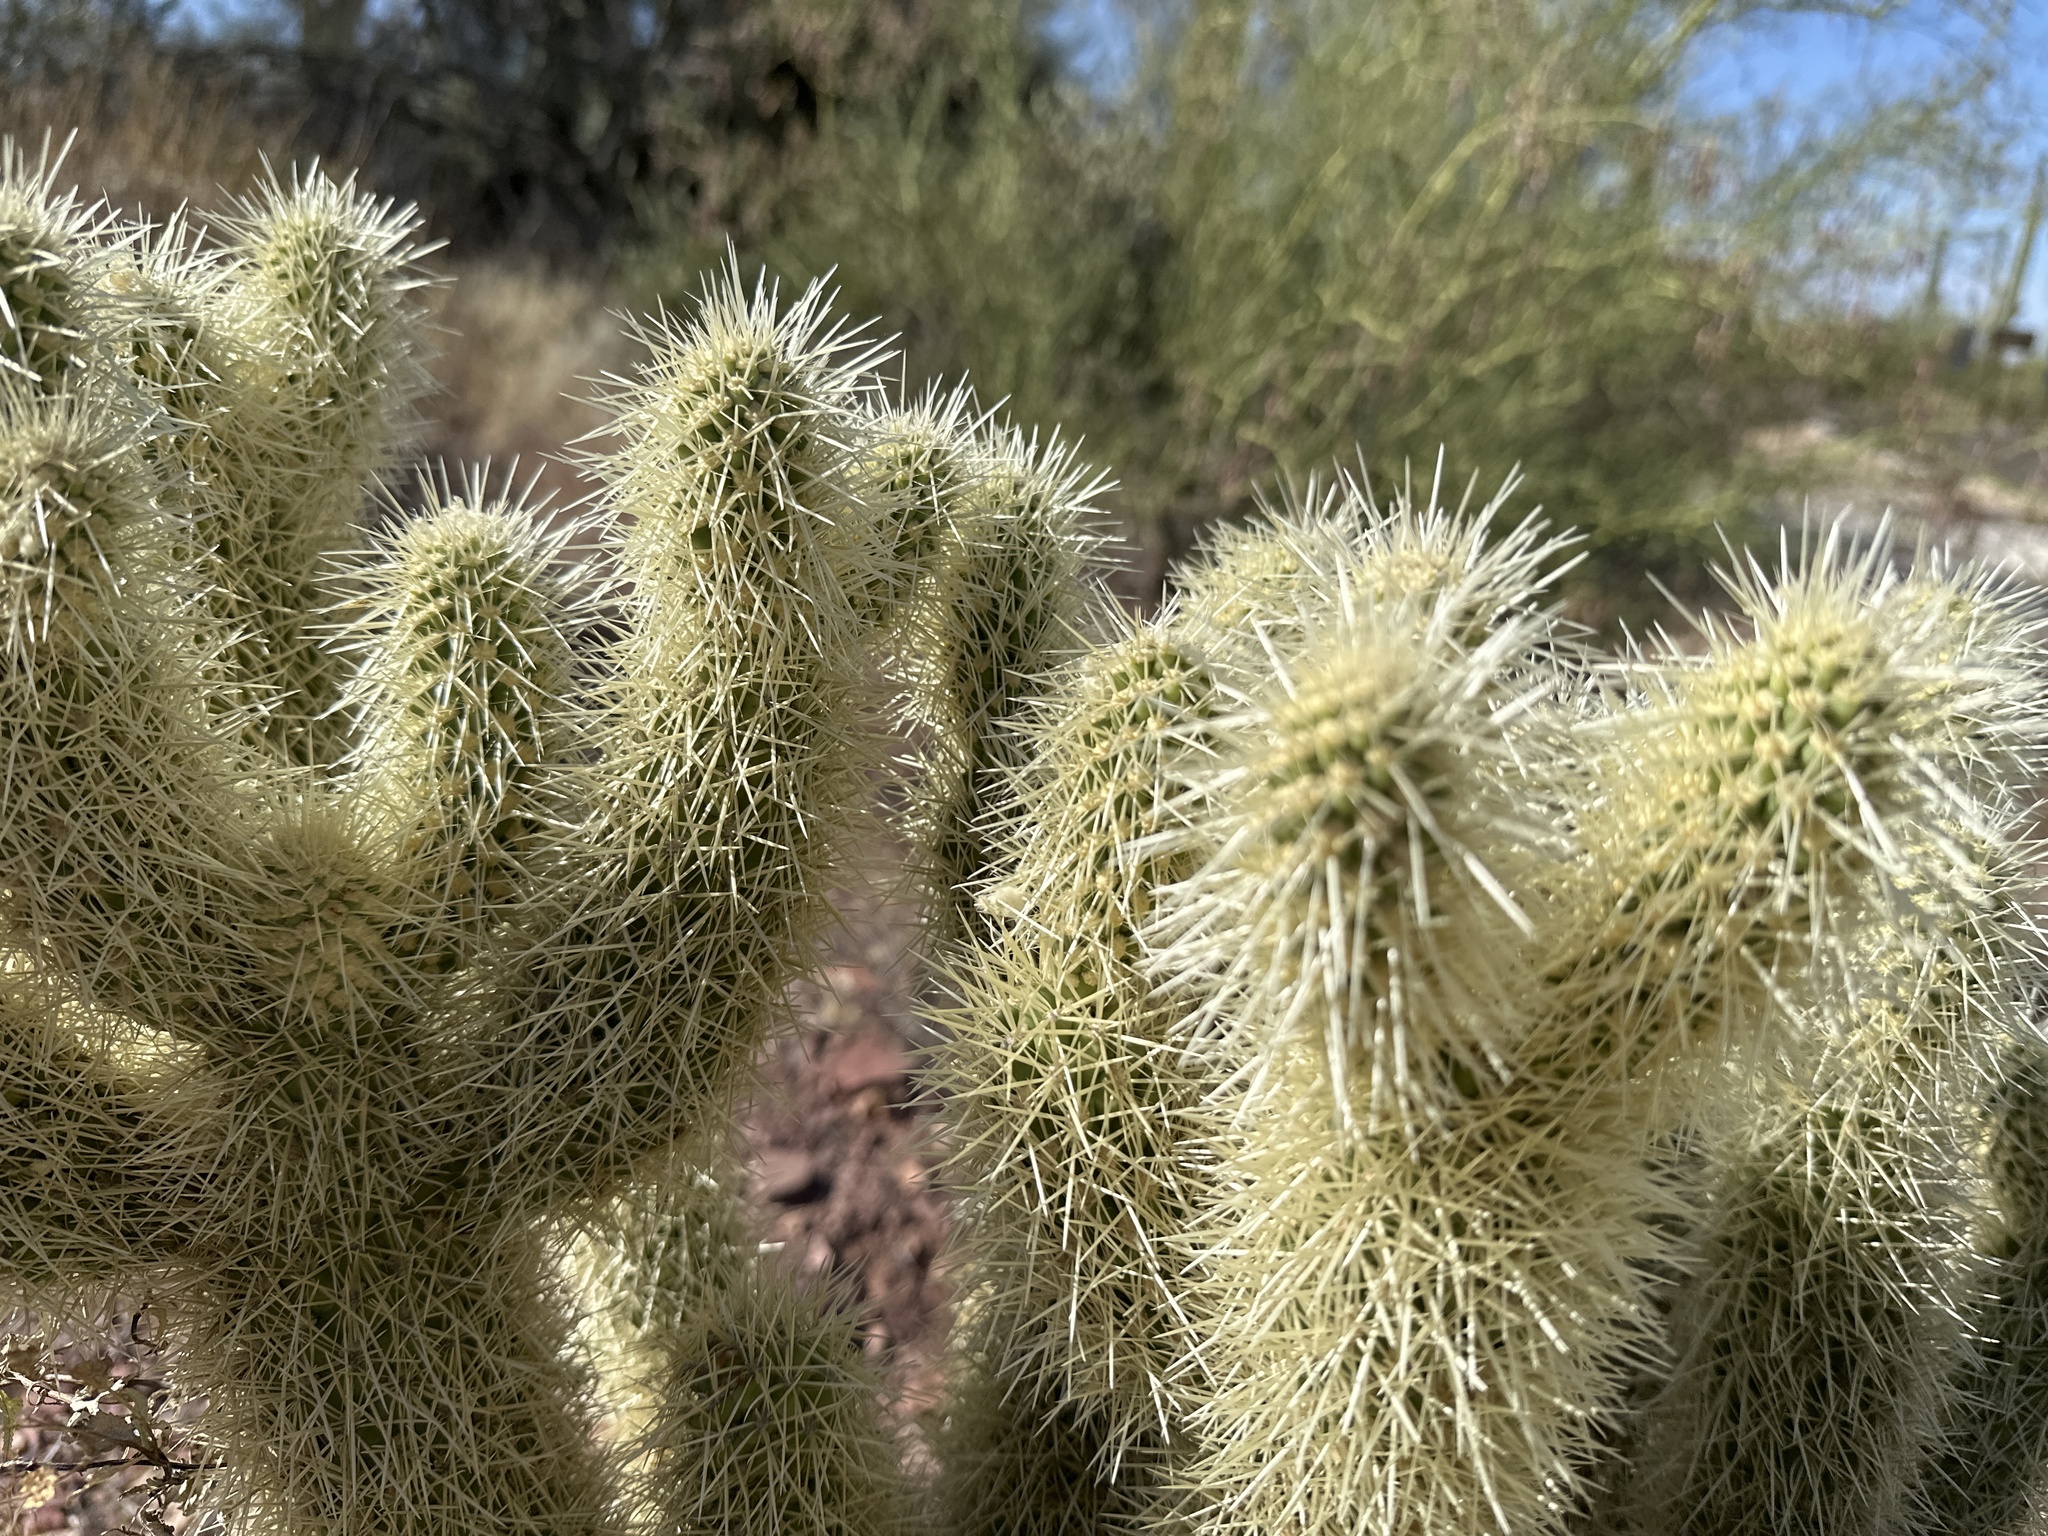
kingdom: Plantae
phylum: Tracheophyta
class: Magnoliopsida
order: Caryophyllales
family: Cactaceae
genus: Cylindropuntia
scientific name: Cylindropuntia fosbergii
